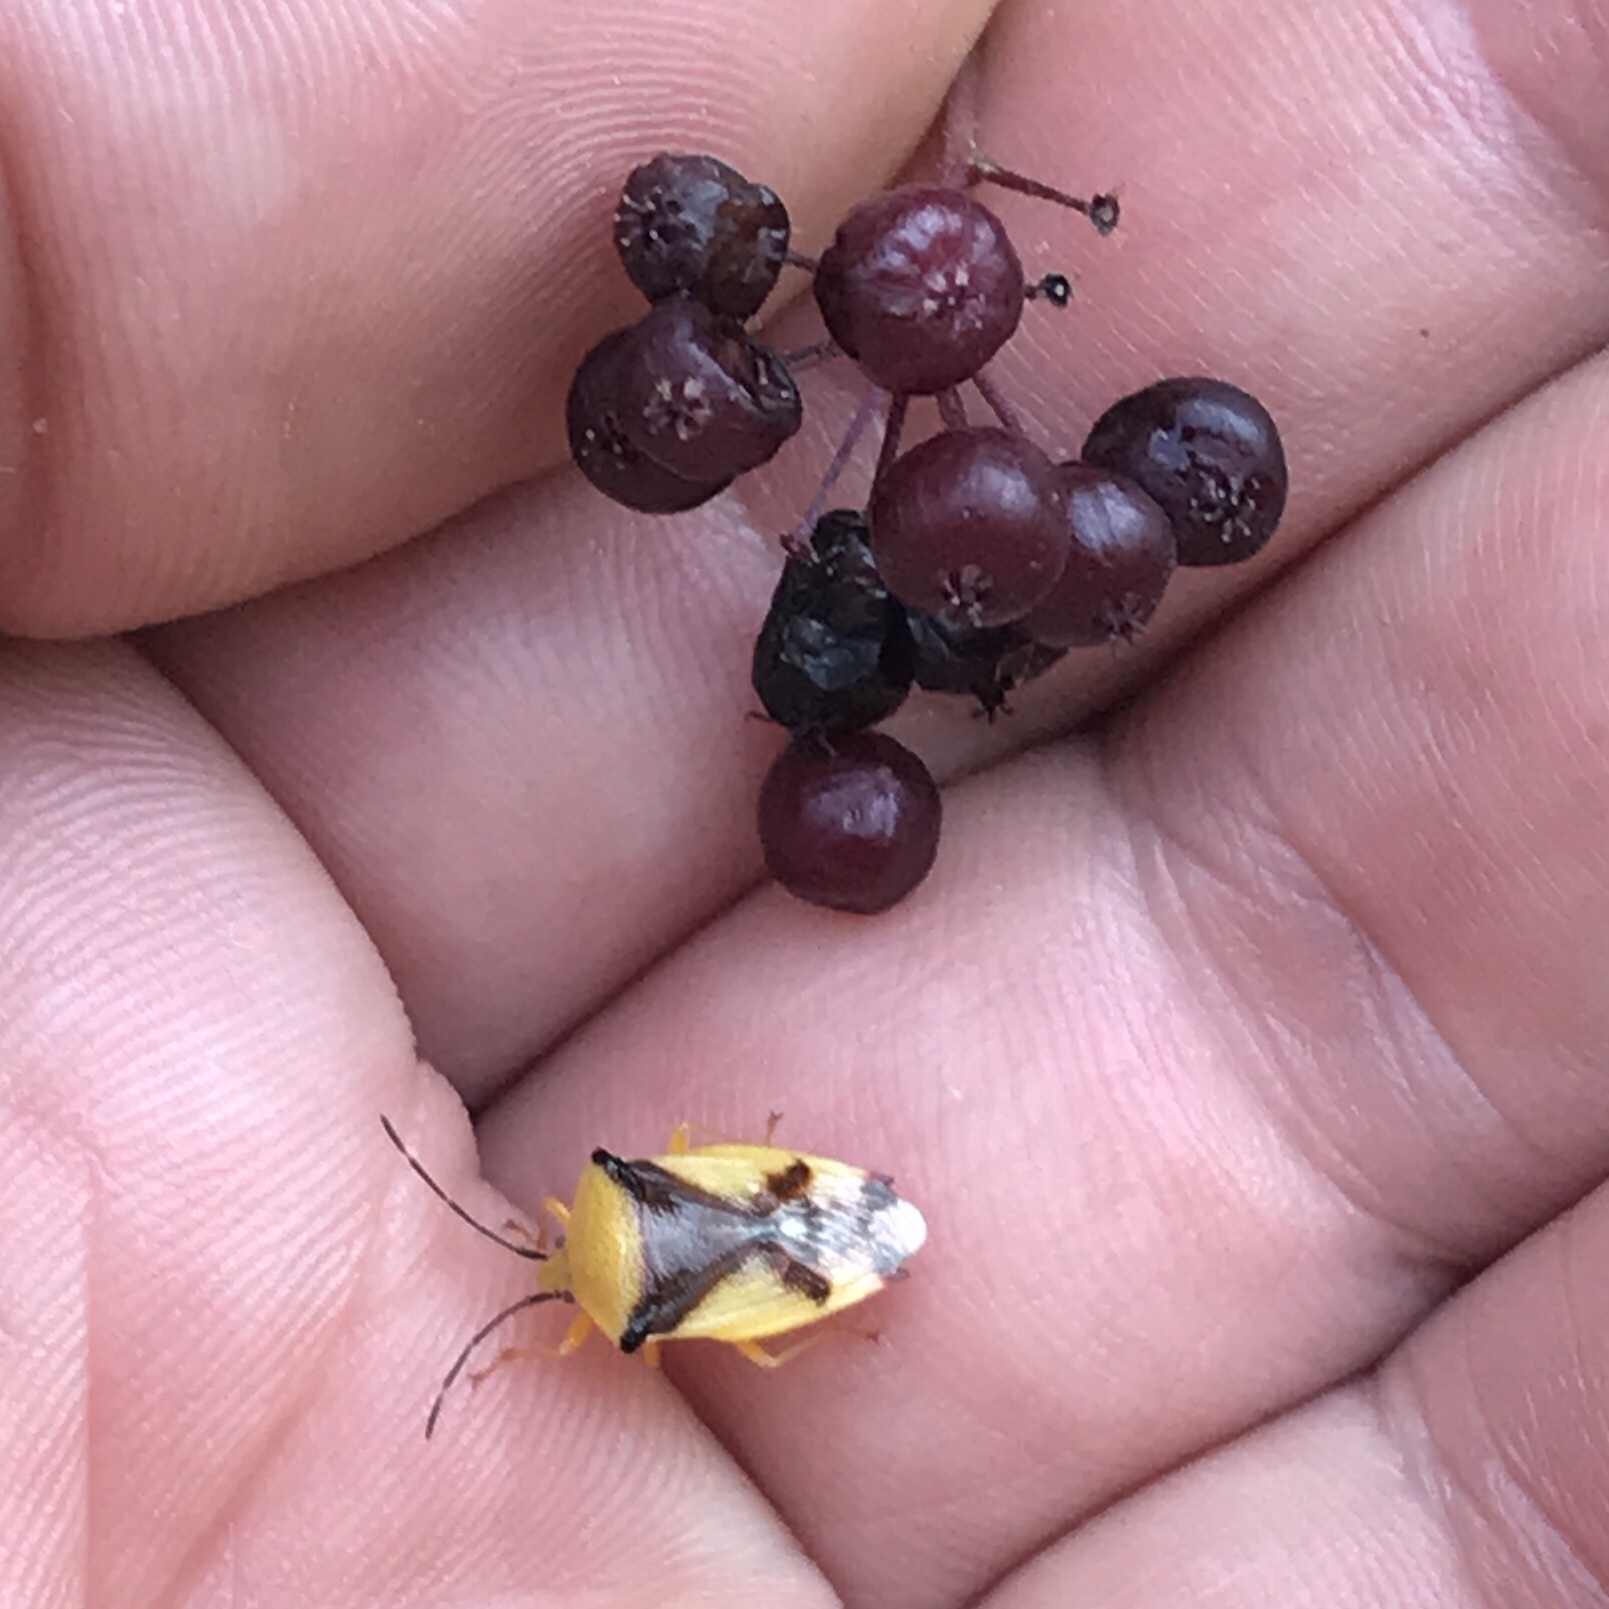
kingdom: Animalia
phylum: Arthropoda
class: Insecta
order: Hemiptera
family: Acanthosomatidae
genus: Elasmostethus
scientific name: Elasmostethus atricornis
